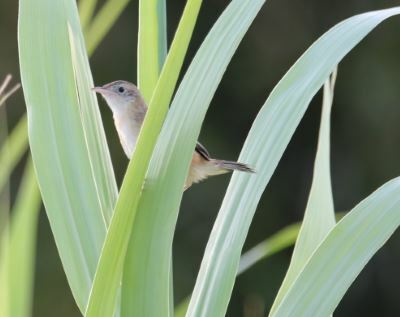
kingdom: Animalia
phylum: Chordata
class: Aves
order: Passeriformes
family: Cisticolidae
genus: Cisticola
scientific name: Cisticola juncidis
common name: Zitting cisticola
